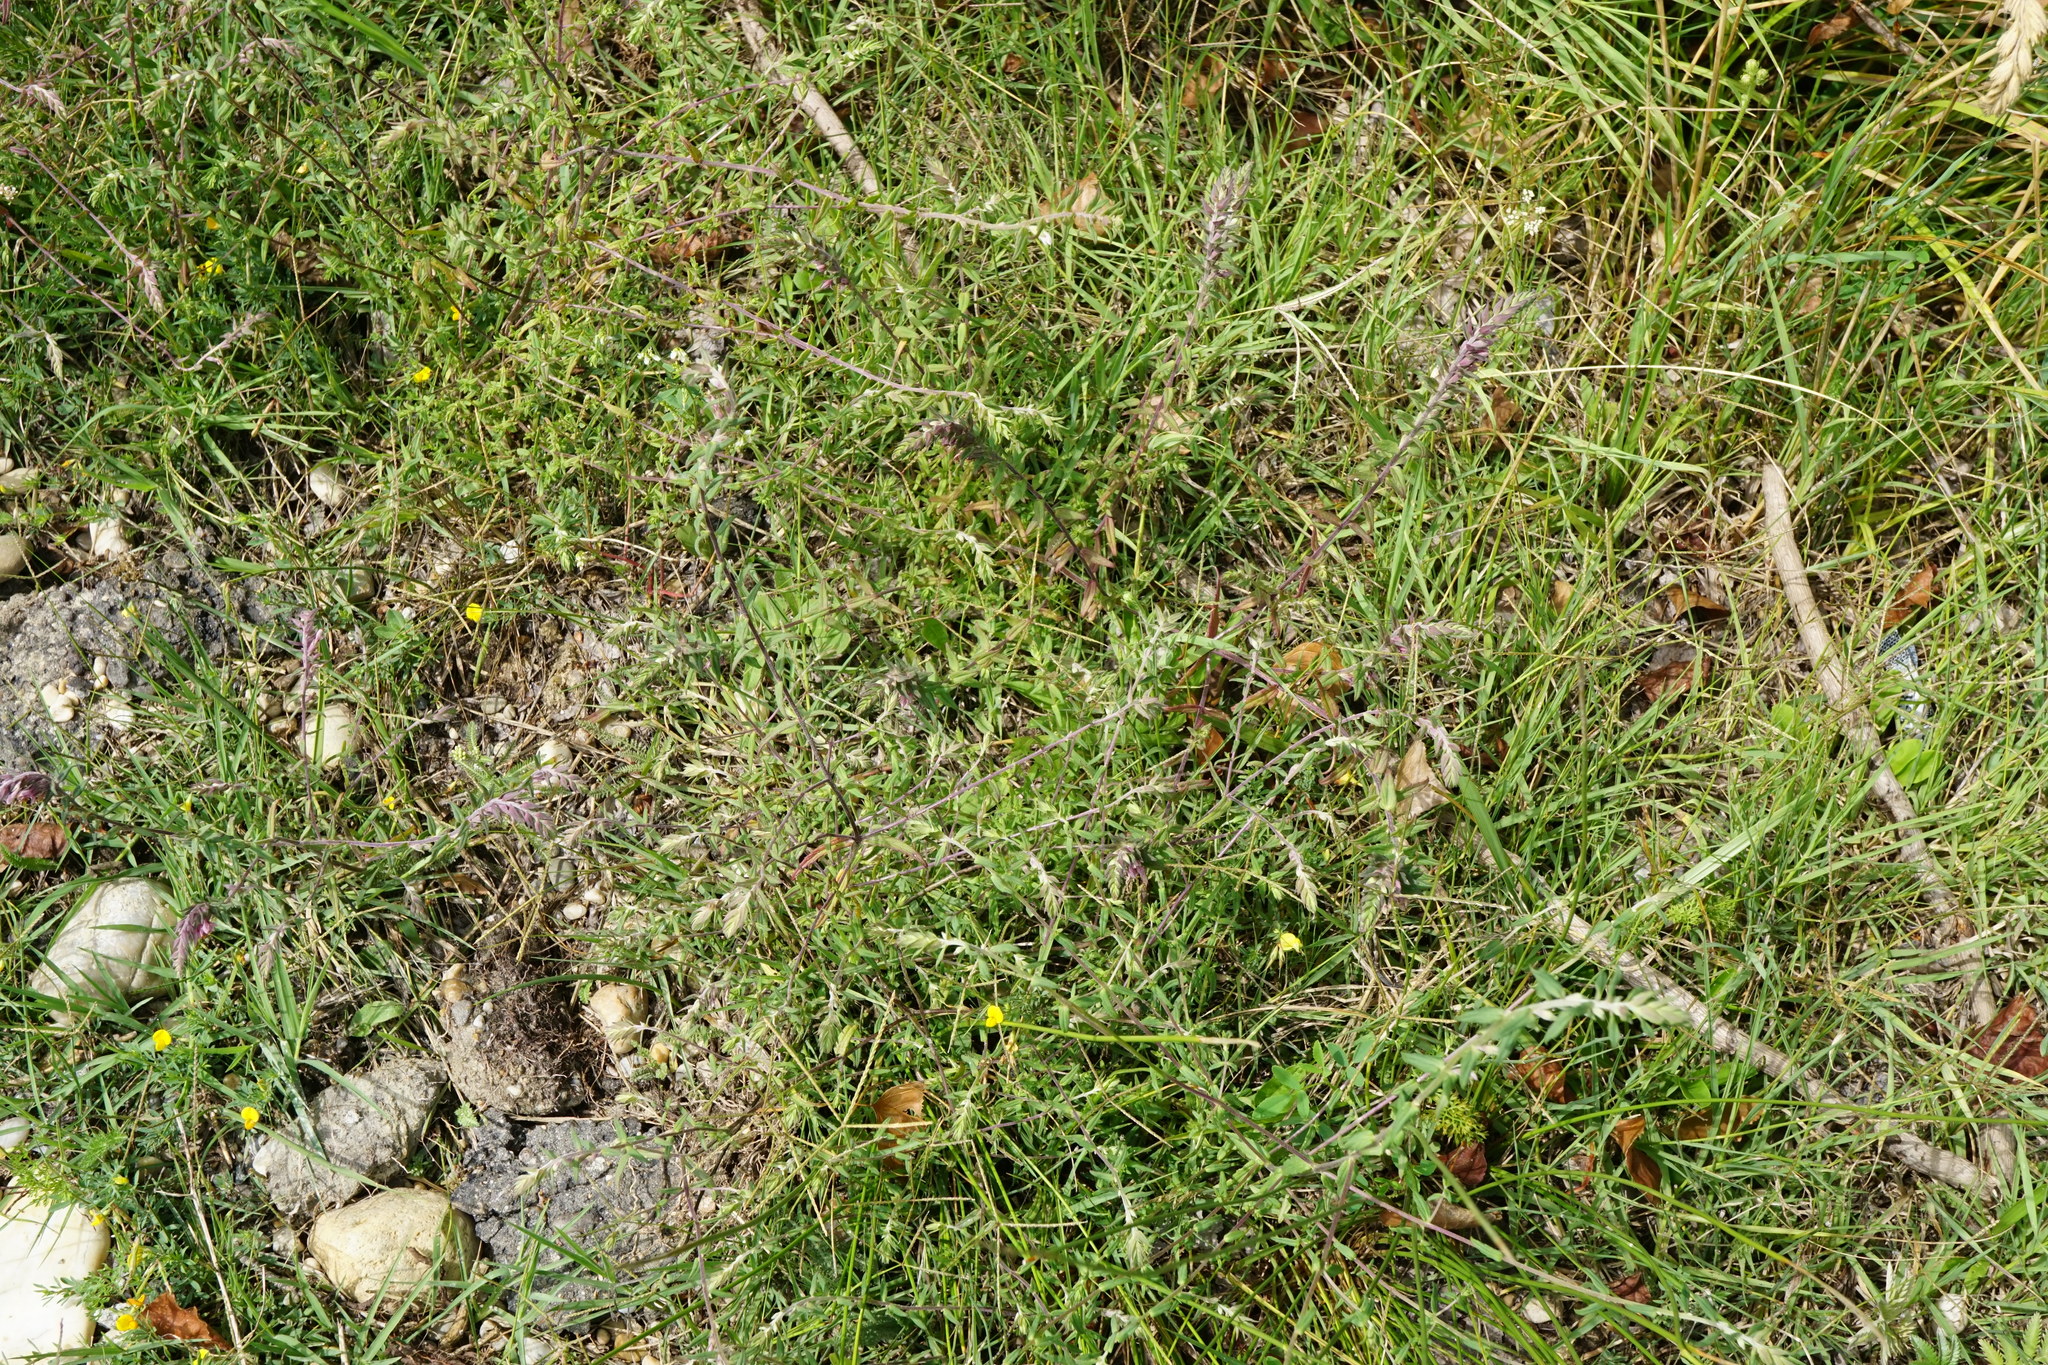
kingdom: Plantae
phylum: Tracheophyta
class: Magnoliopsida
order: Lamiales
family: Orobanchaceae
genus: Odontites
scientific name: Odontites vulgaris
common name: Broomrape
